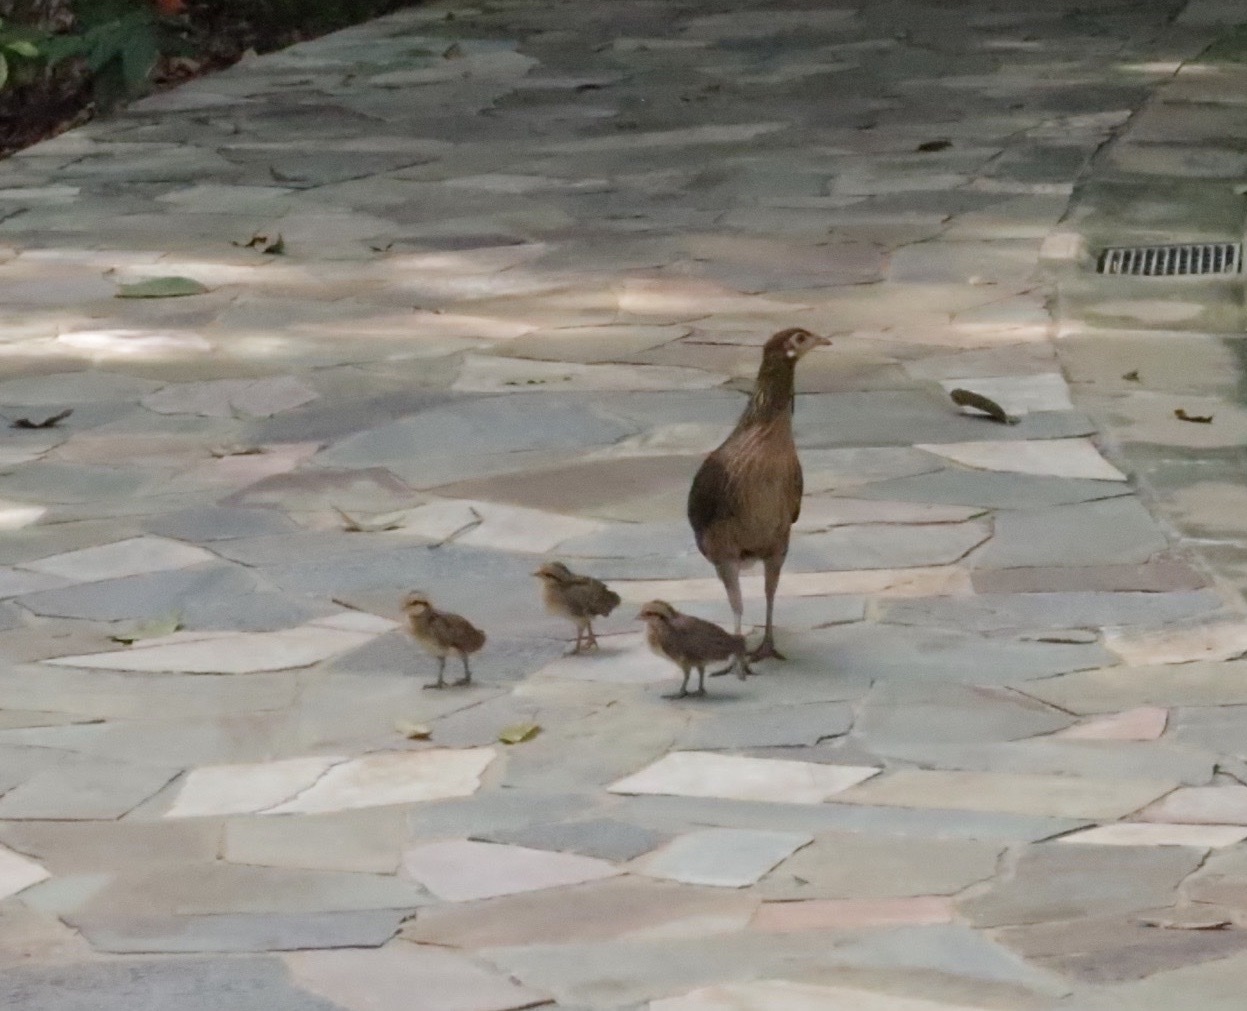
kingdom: Animalia
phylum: Chordata
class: Aves
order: Galliformes
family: Phasianidae
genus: Gallus
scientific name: Gallus gallus
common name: Red junglefowl
